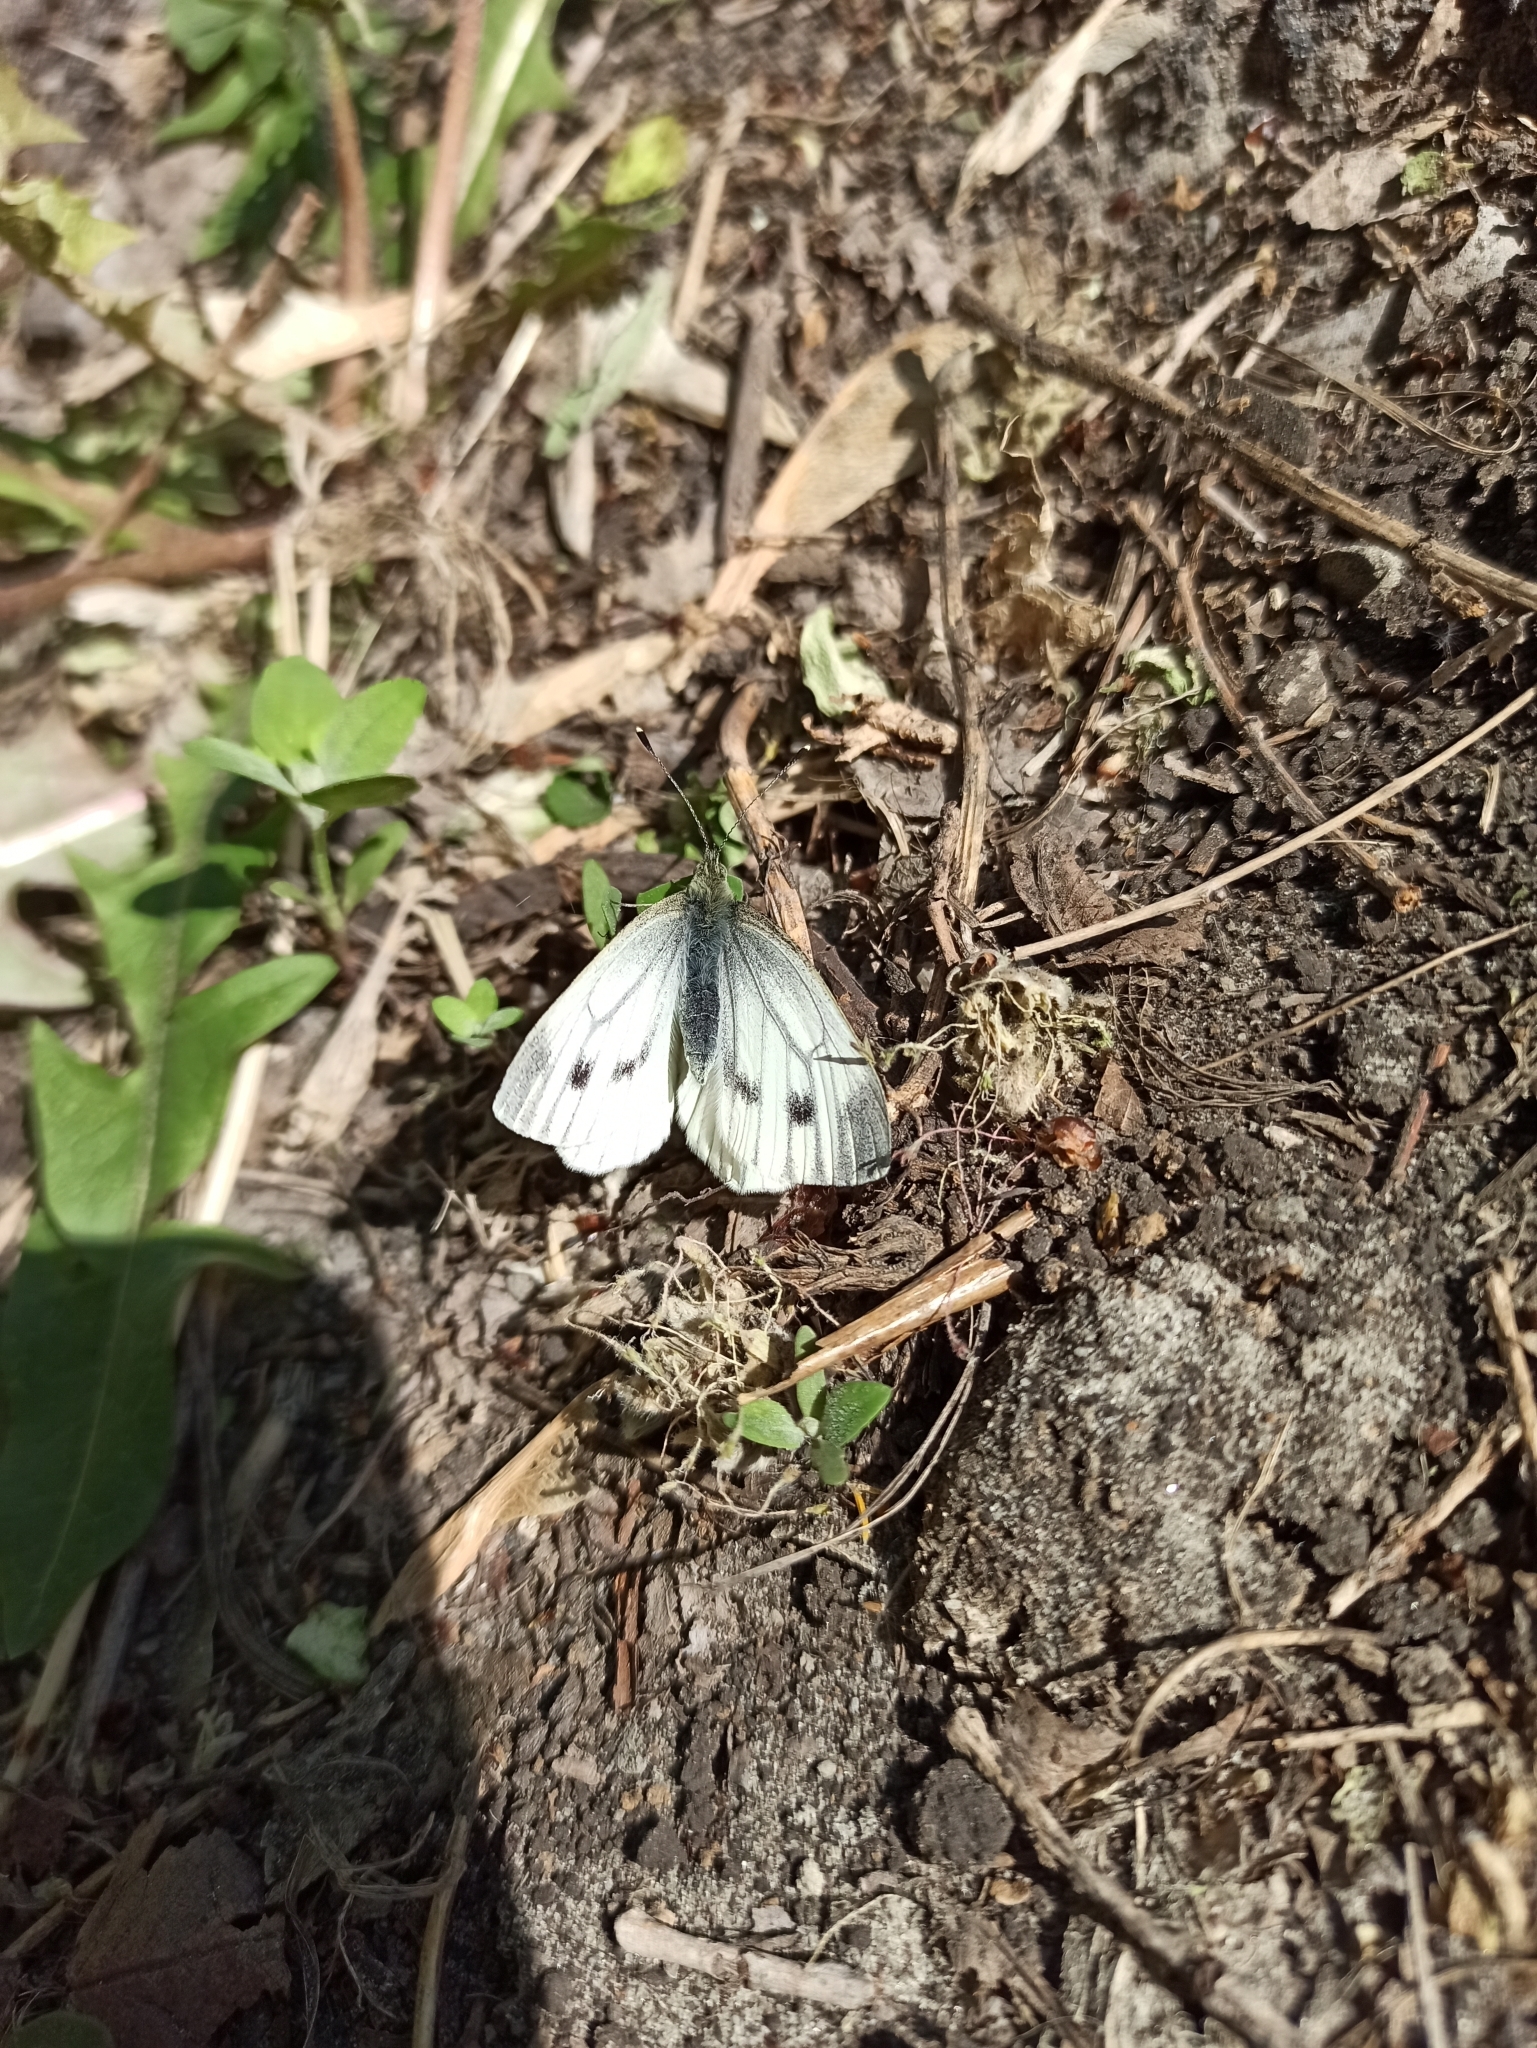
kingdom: Animalia
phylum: Arthropoda
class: Insecta
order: Lepidoptera
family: Pieridae
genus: Pieris
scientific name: Pieris napi
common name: Green-veined white
